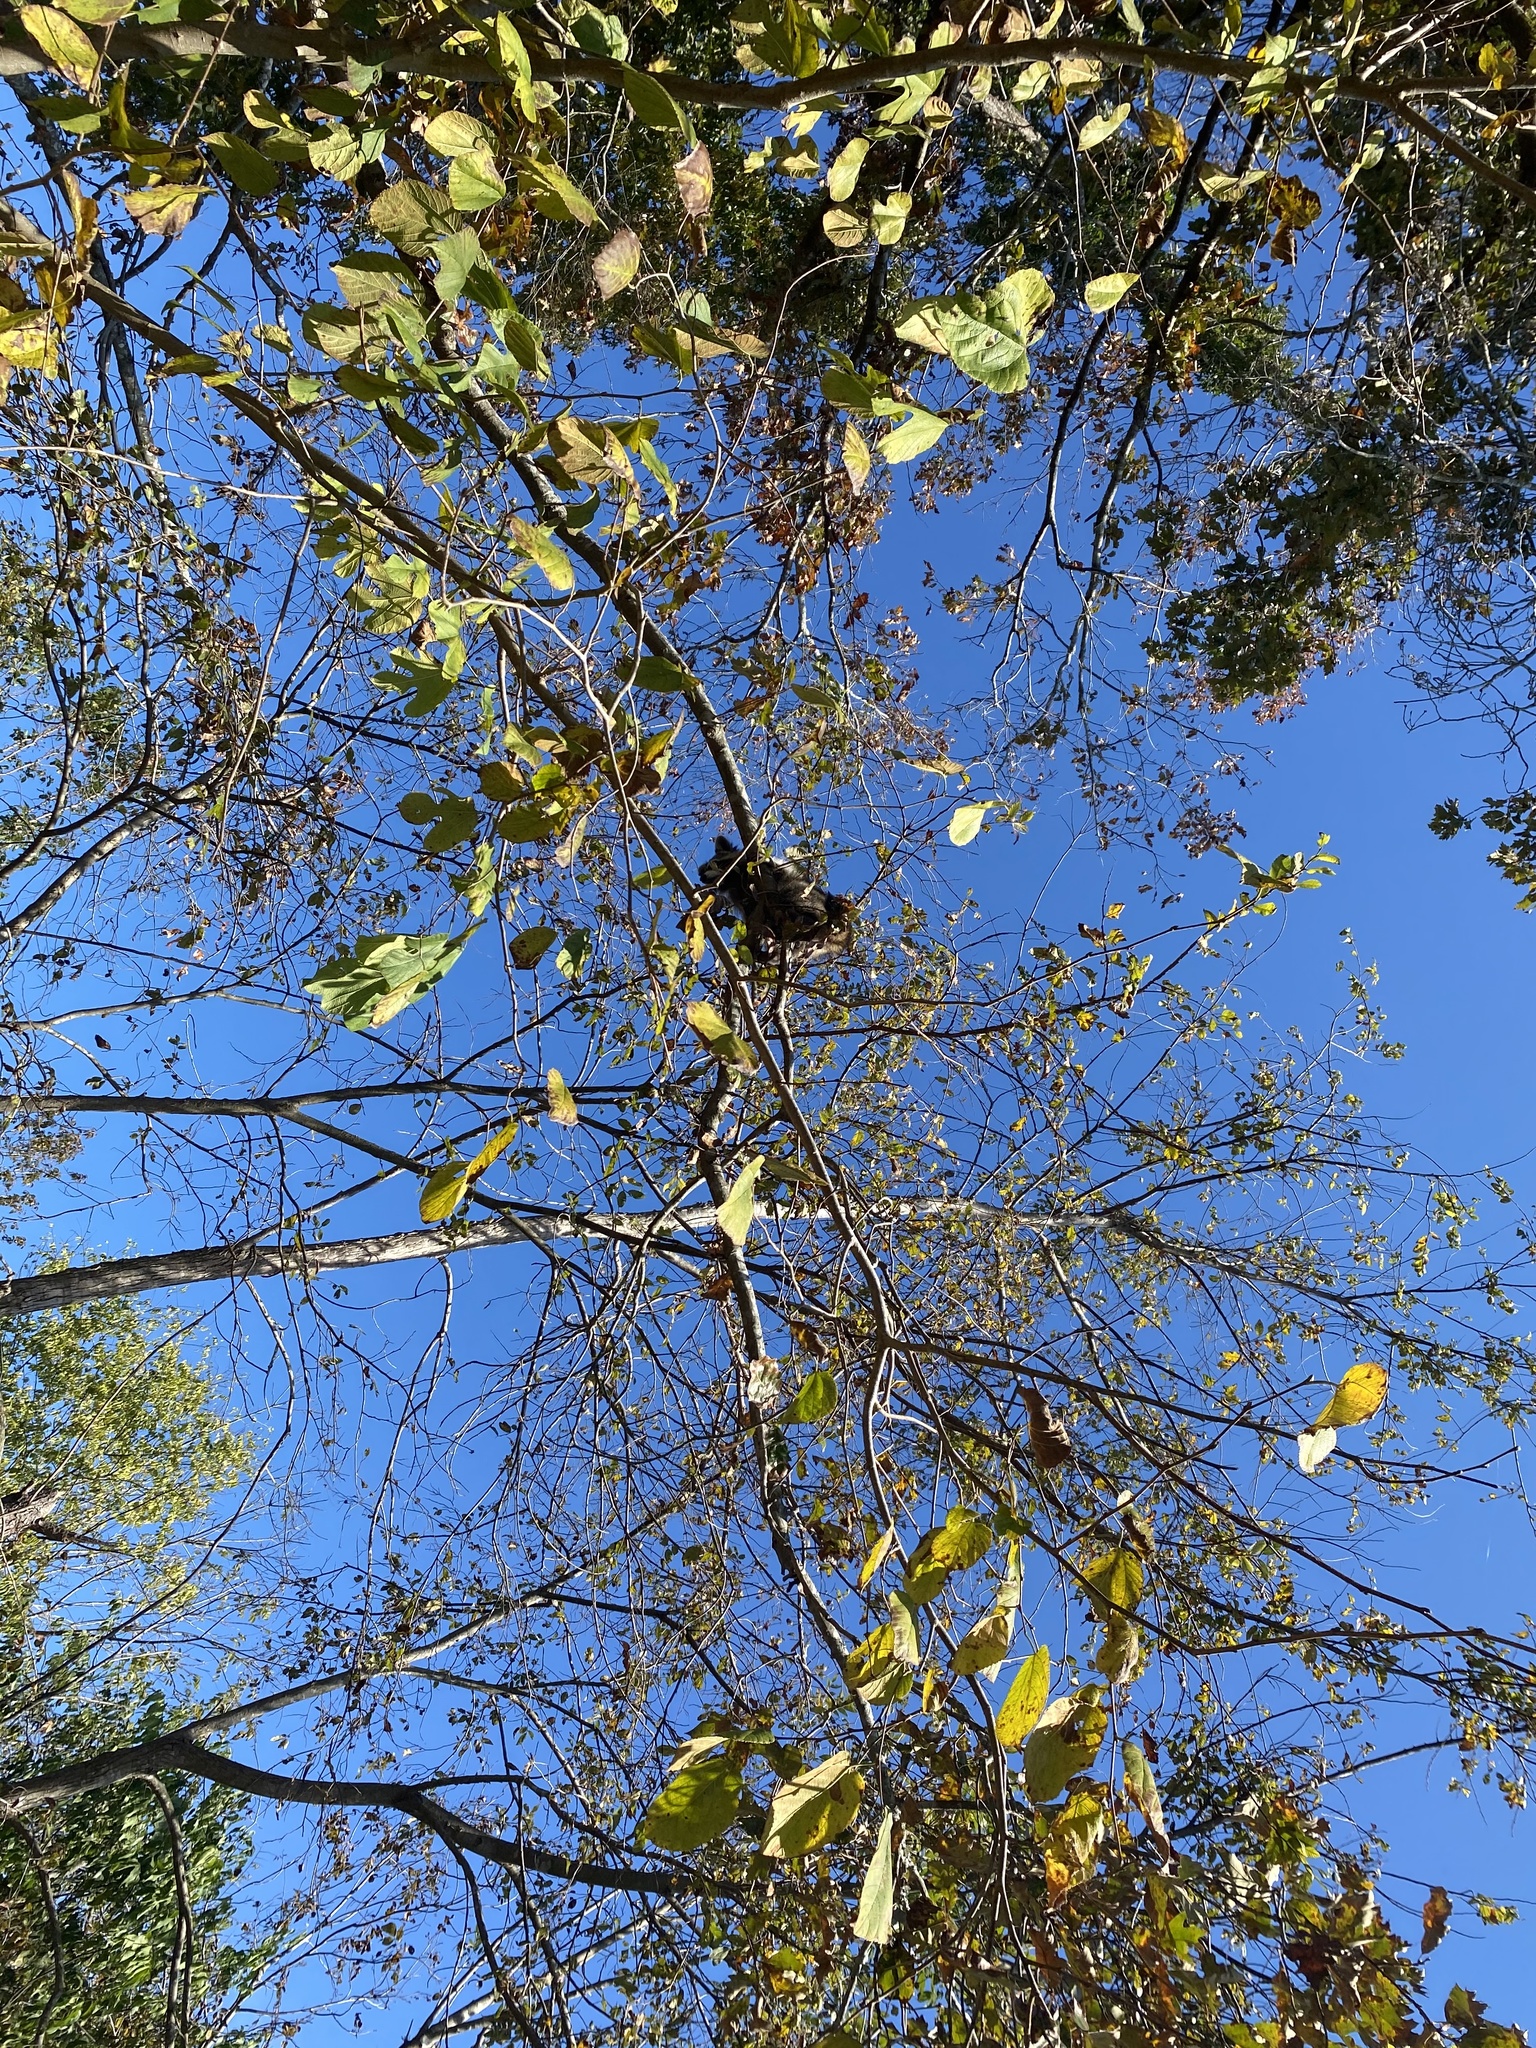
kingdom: Animalia
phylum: Chordata
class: Mammalia
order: Carnivora
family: Procyonidae
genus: Procyon
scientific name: Procyon lotor
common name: Raccoon
